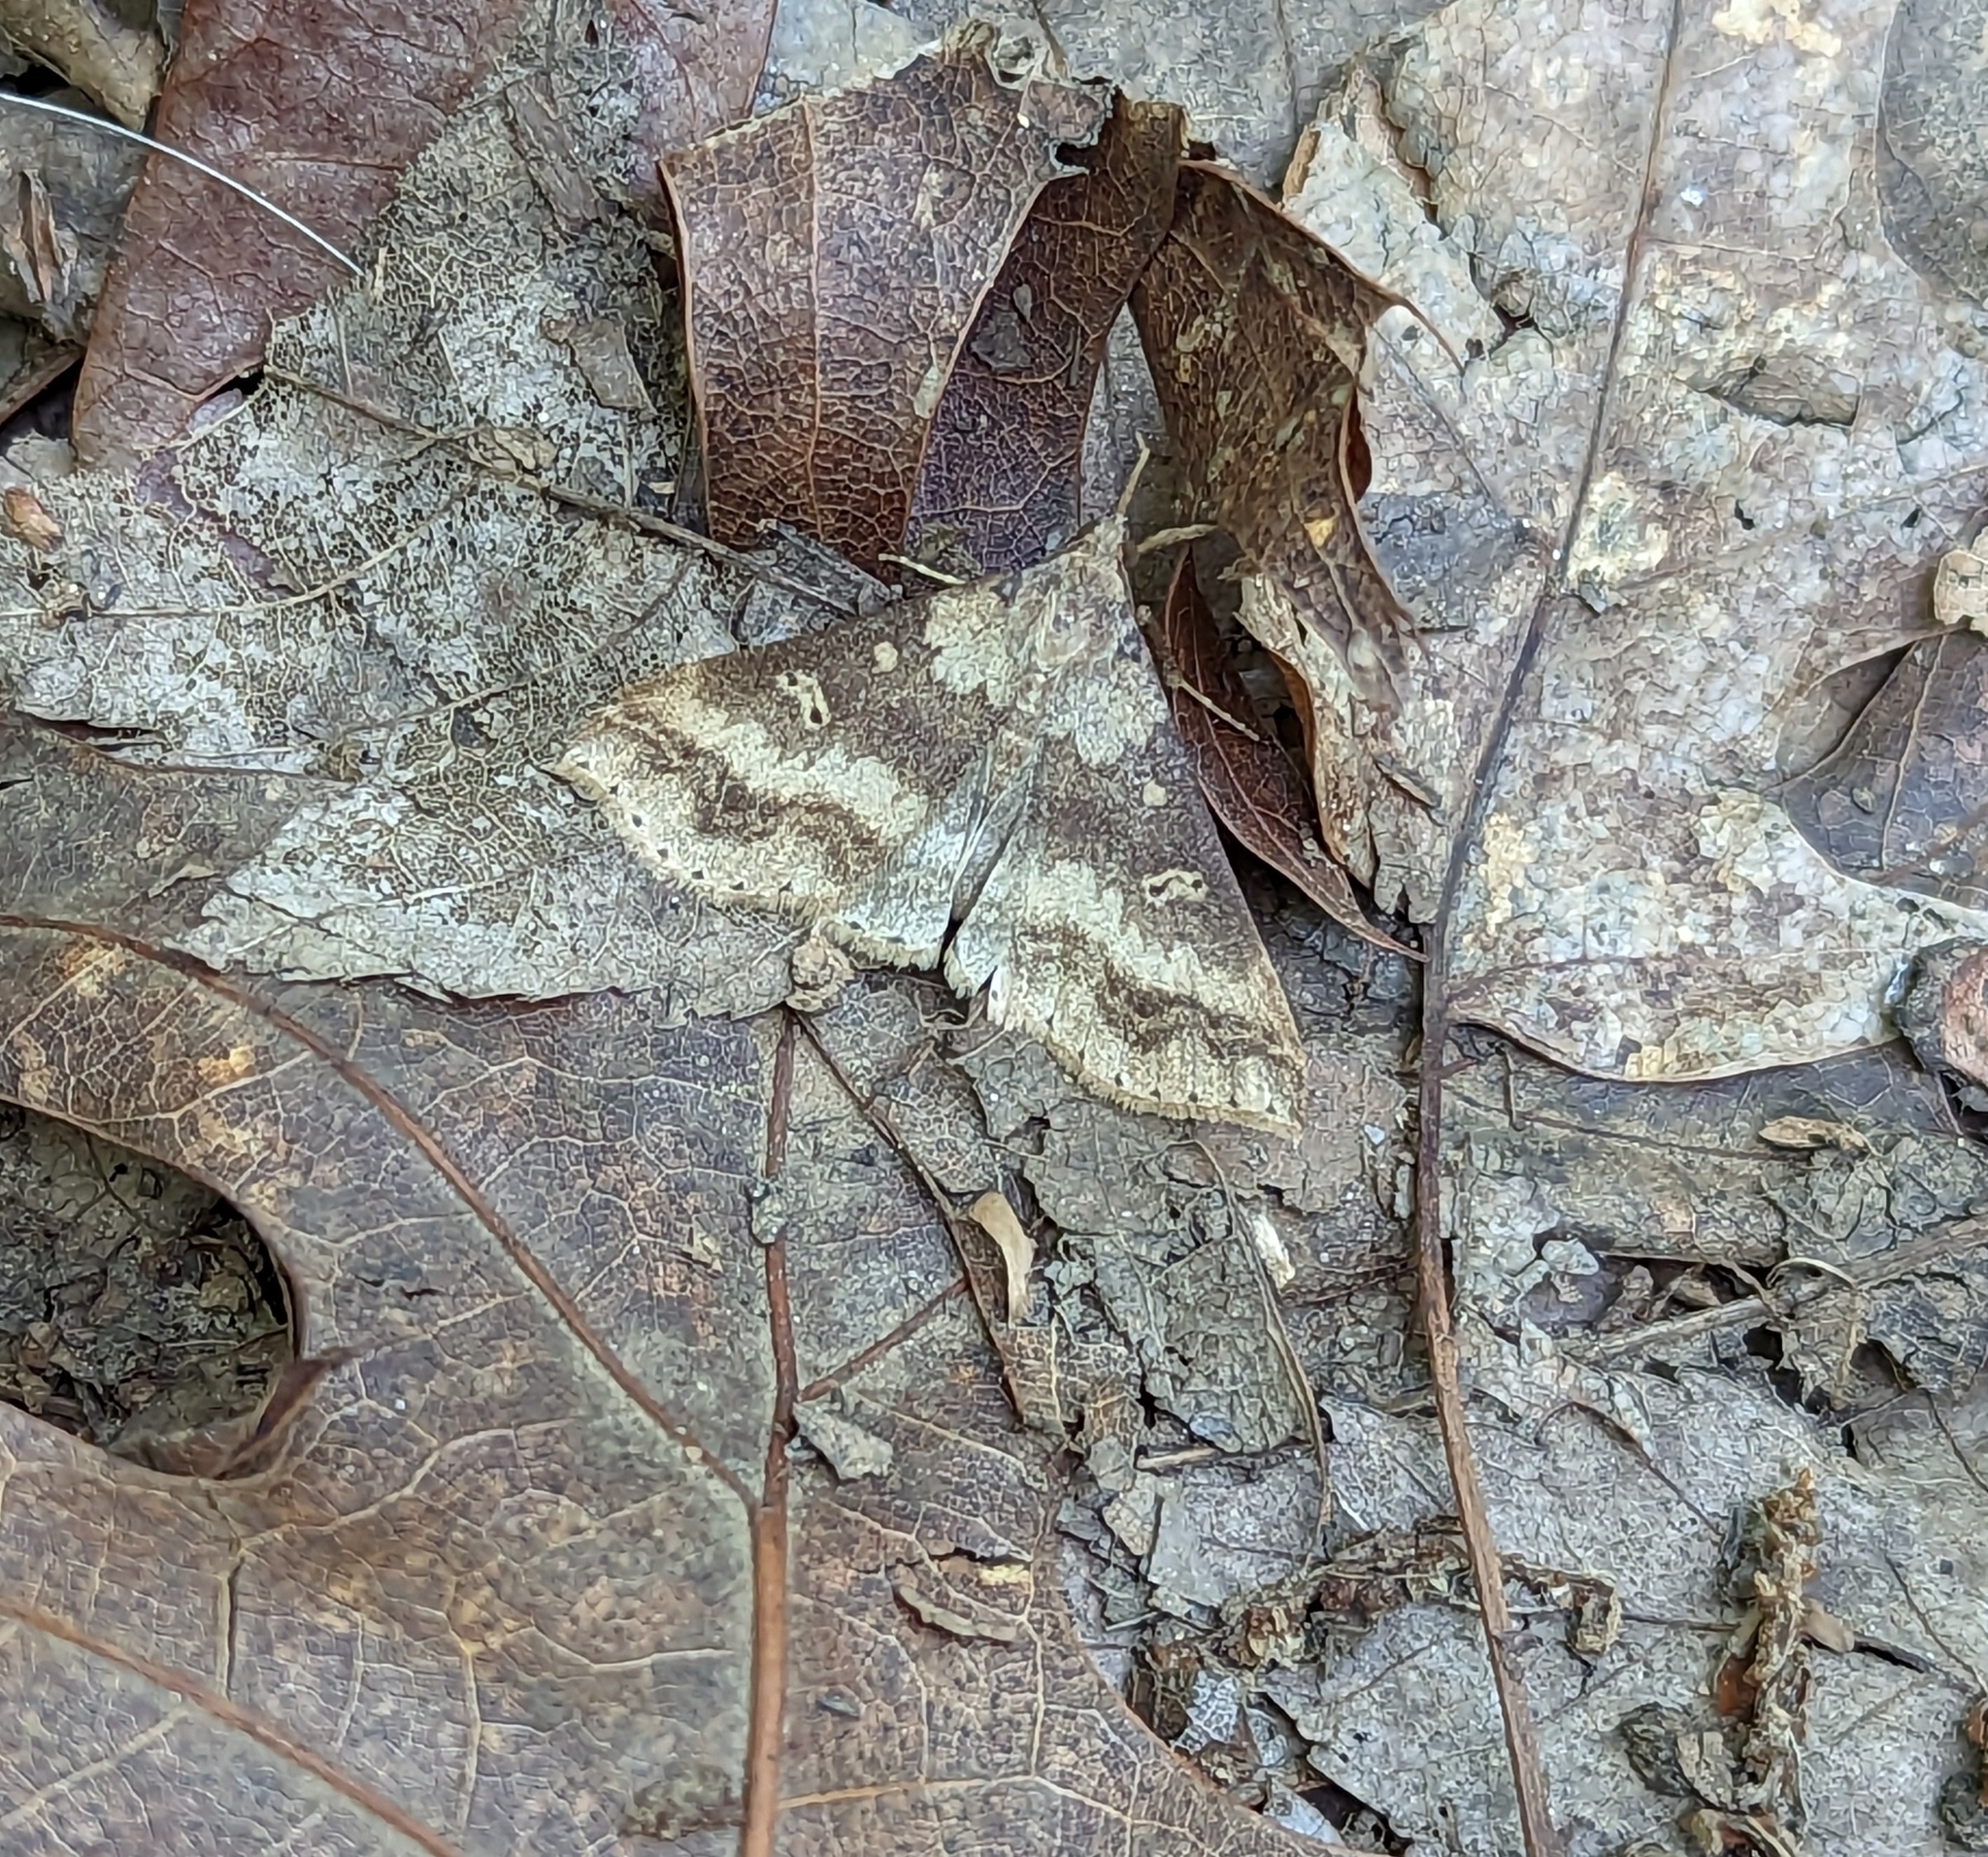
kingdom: Animalia
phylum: Arthropoda
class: Insecta
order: Lepidoptera
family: Erebidae
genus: Renia
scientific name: Renia discoloralis
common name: Discolored renia moth
